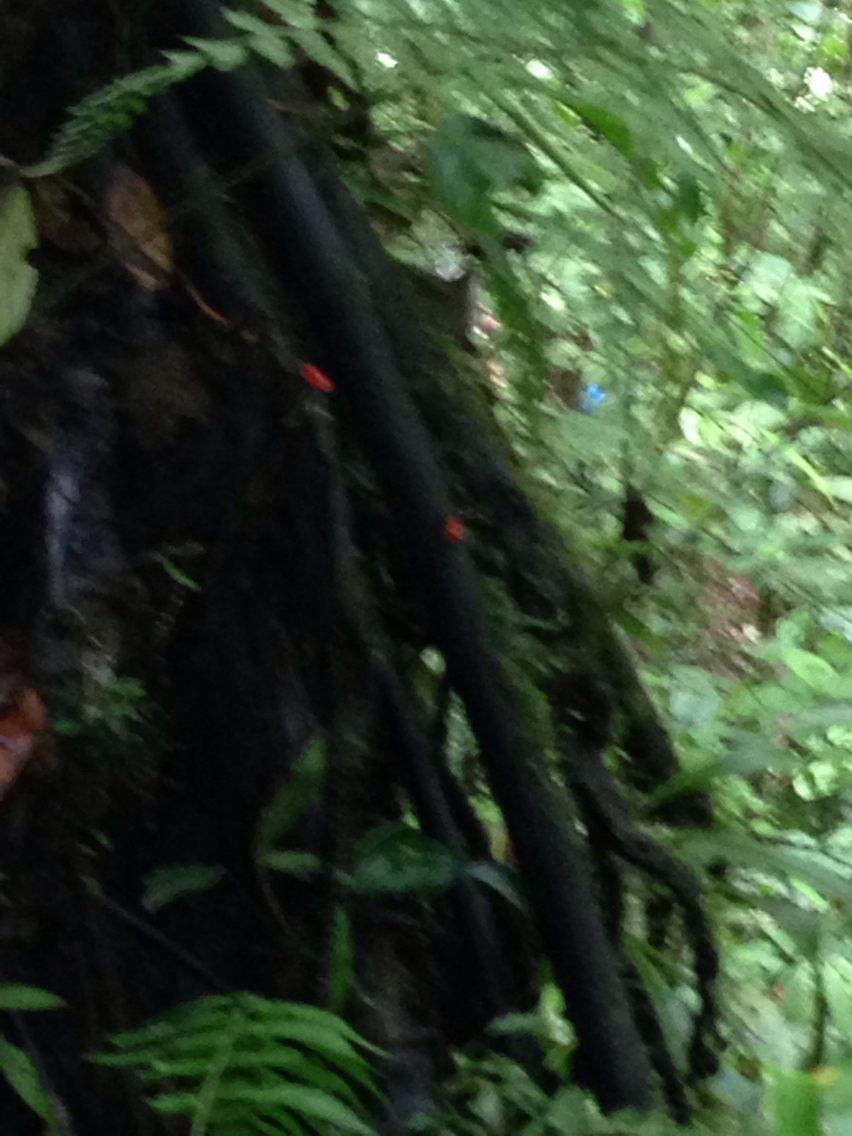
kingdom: Animalia
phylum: Chordata
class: Amphibia
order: Anura
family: Dendrobatidae
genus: Oophaga
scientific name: Oophaga pumilio
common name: Flaming poison frog
